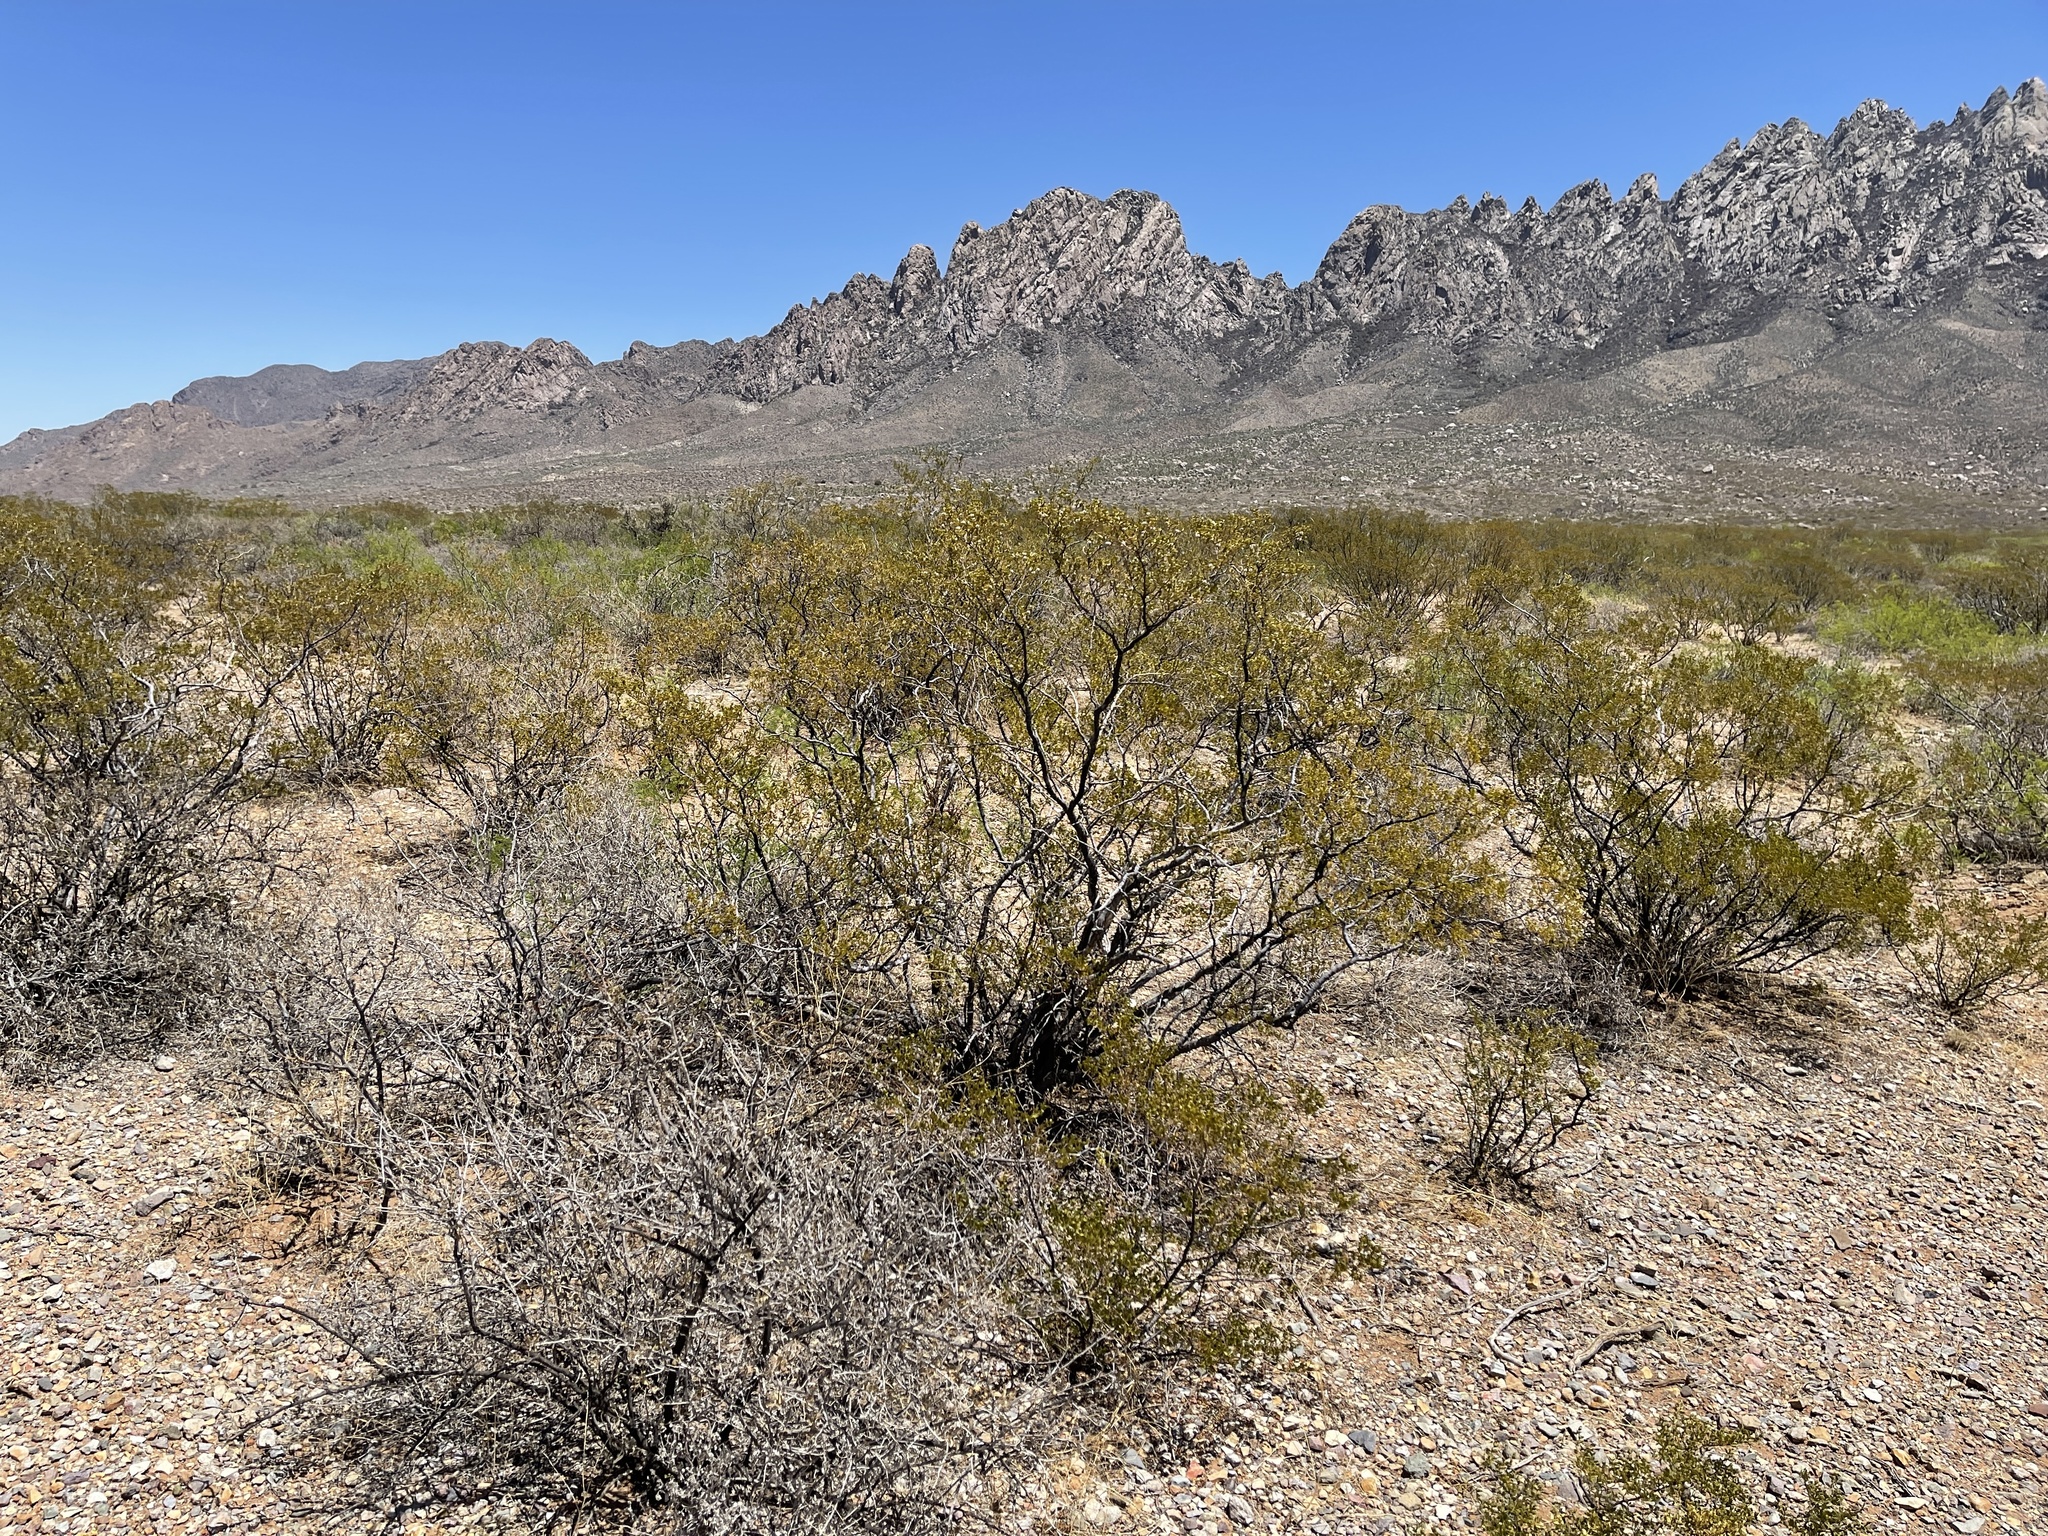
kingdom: Plantae
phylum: Tracheophyta
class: Magnoliopsida
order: Zygophyllales
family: Zygophyllaceae
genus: Larrea
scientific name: Larrea tridentata
